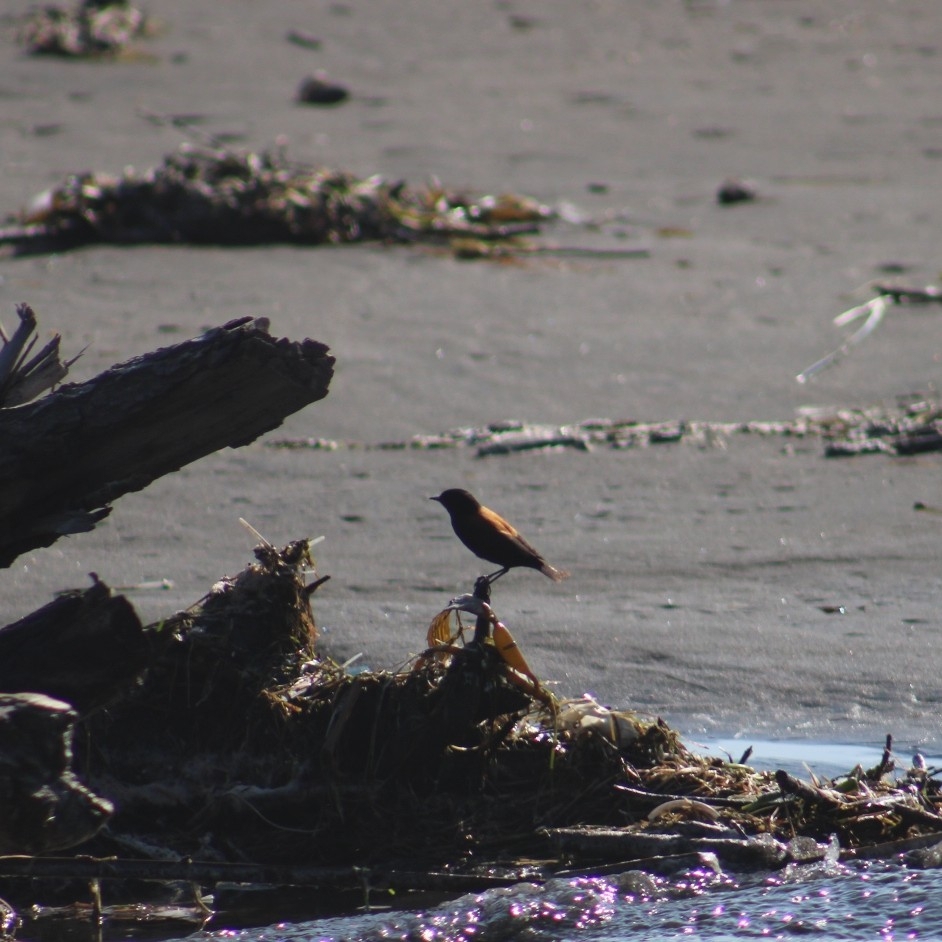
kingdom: Animalia
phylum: Chordata
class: Aves
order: Passeriformes
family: Tyrannidae
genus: Lessonia
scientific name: Lessonia rufa
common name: Austral negrito
